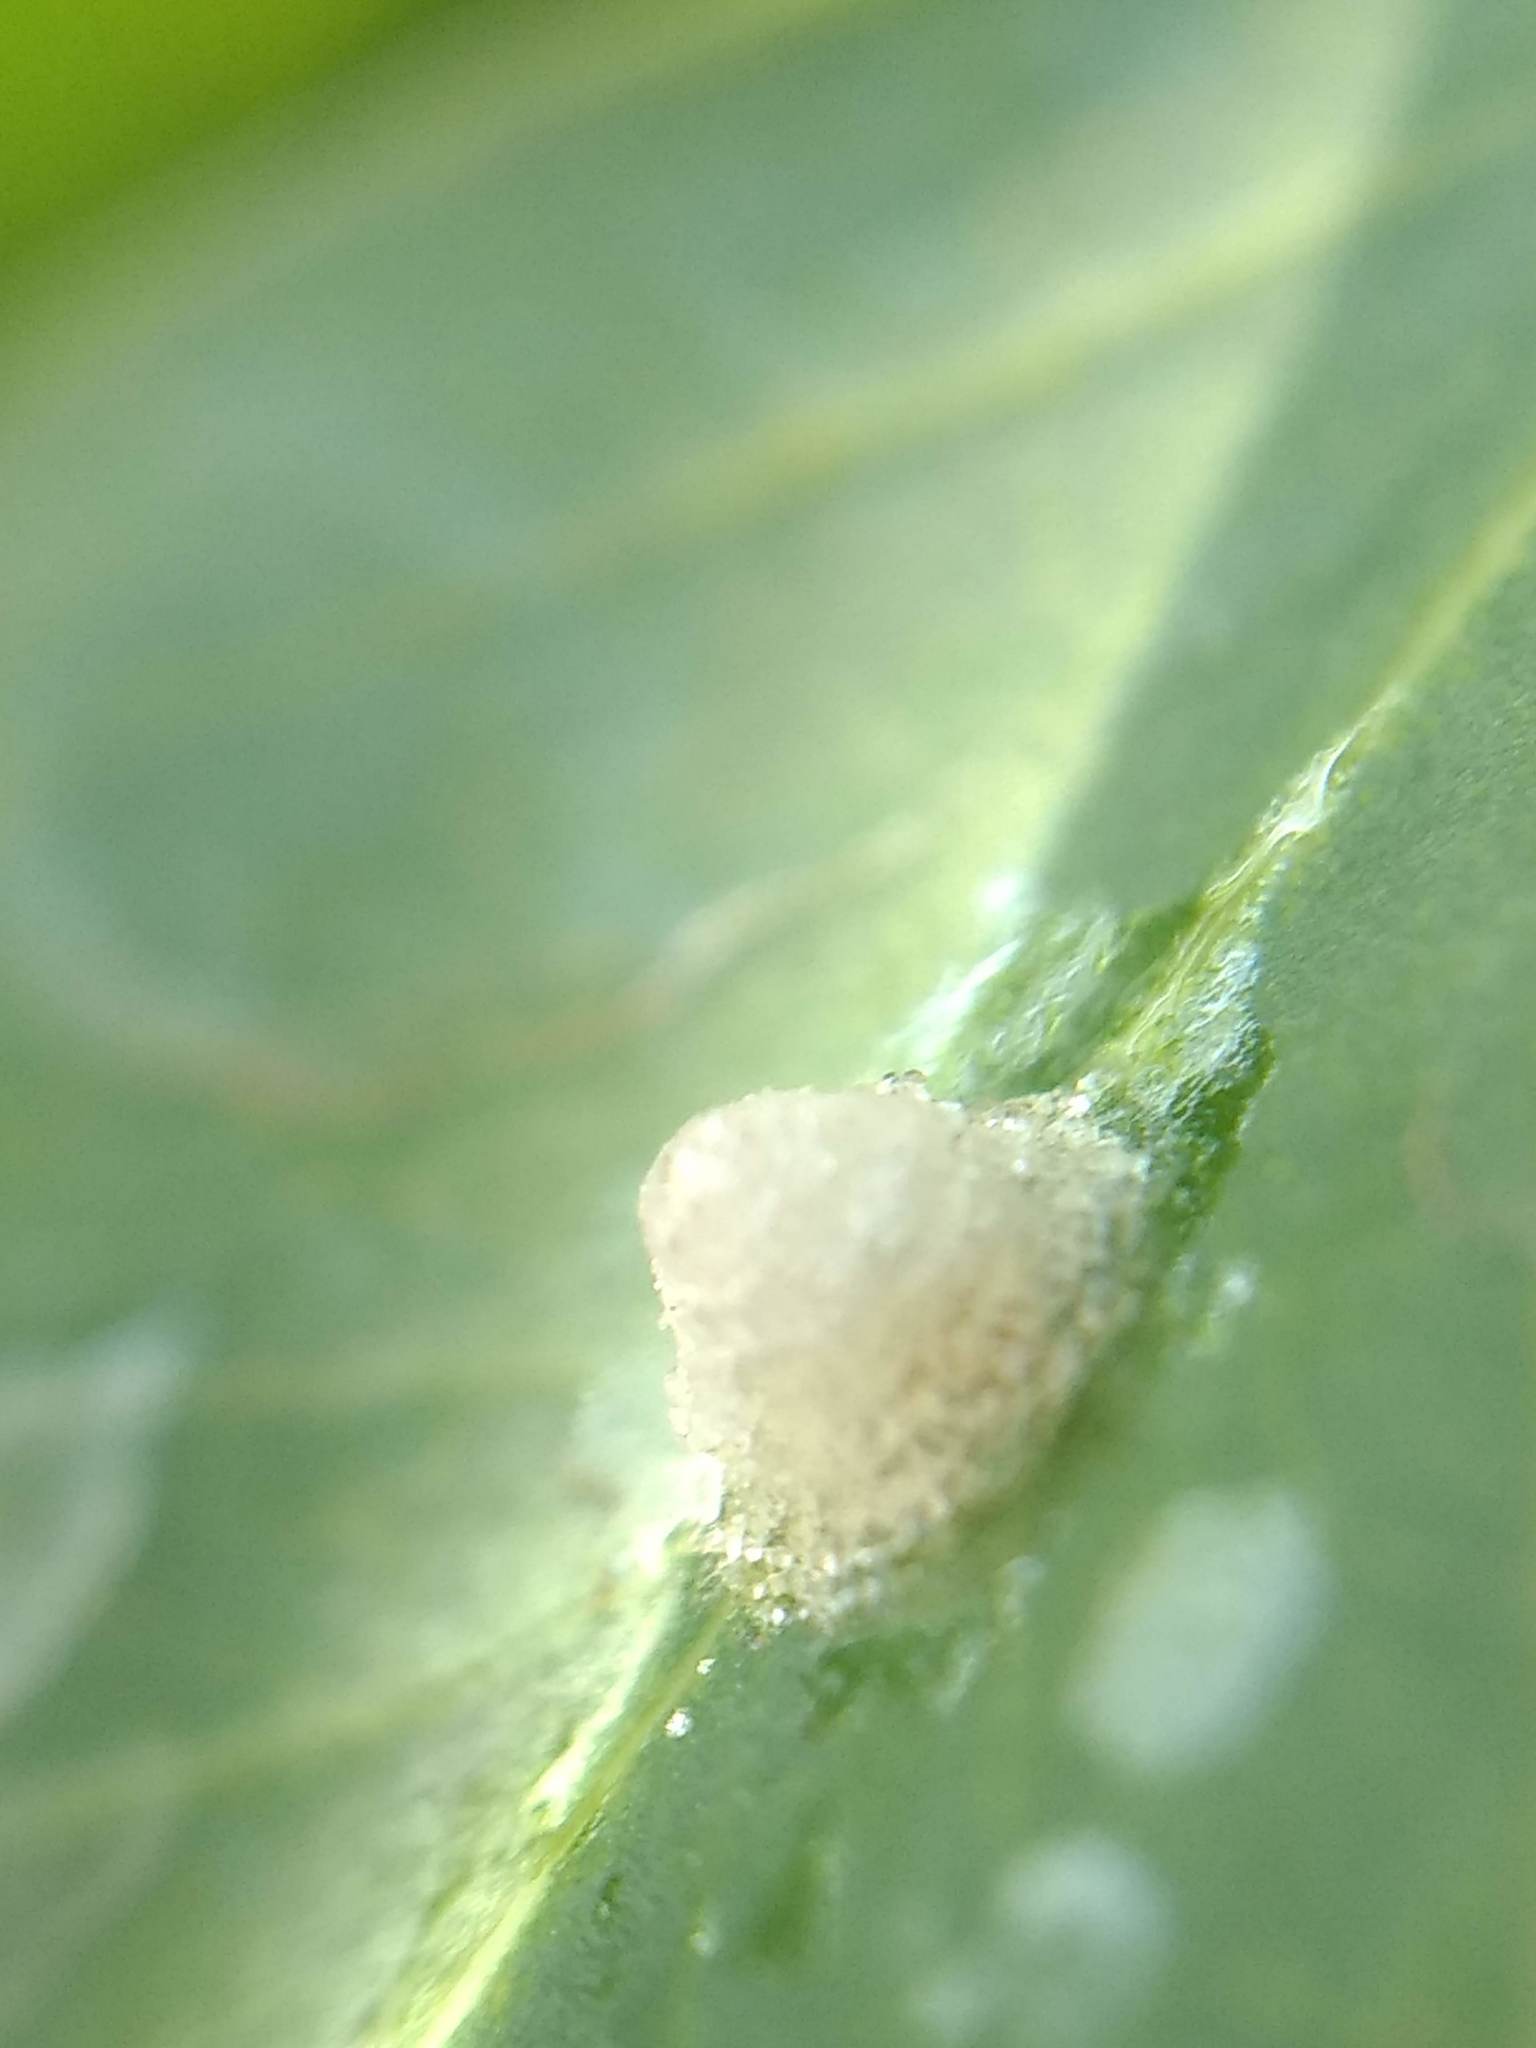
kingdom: Animalia
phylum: Arthropoda
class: Insecta
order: Hemiptera
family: Aphalaridae
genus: Glycaspis
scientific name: Glycaspis brimblecombei
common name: Red gum lerp psyllid
